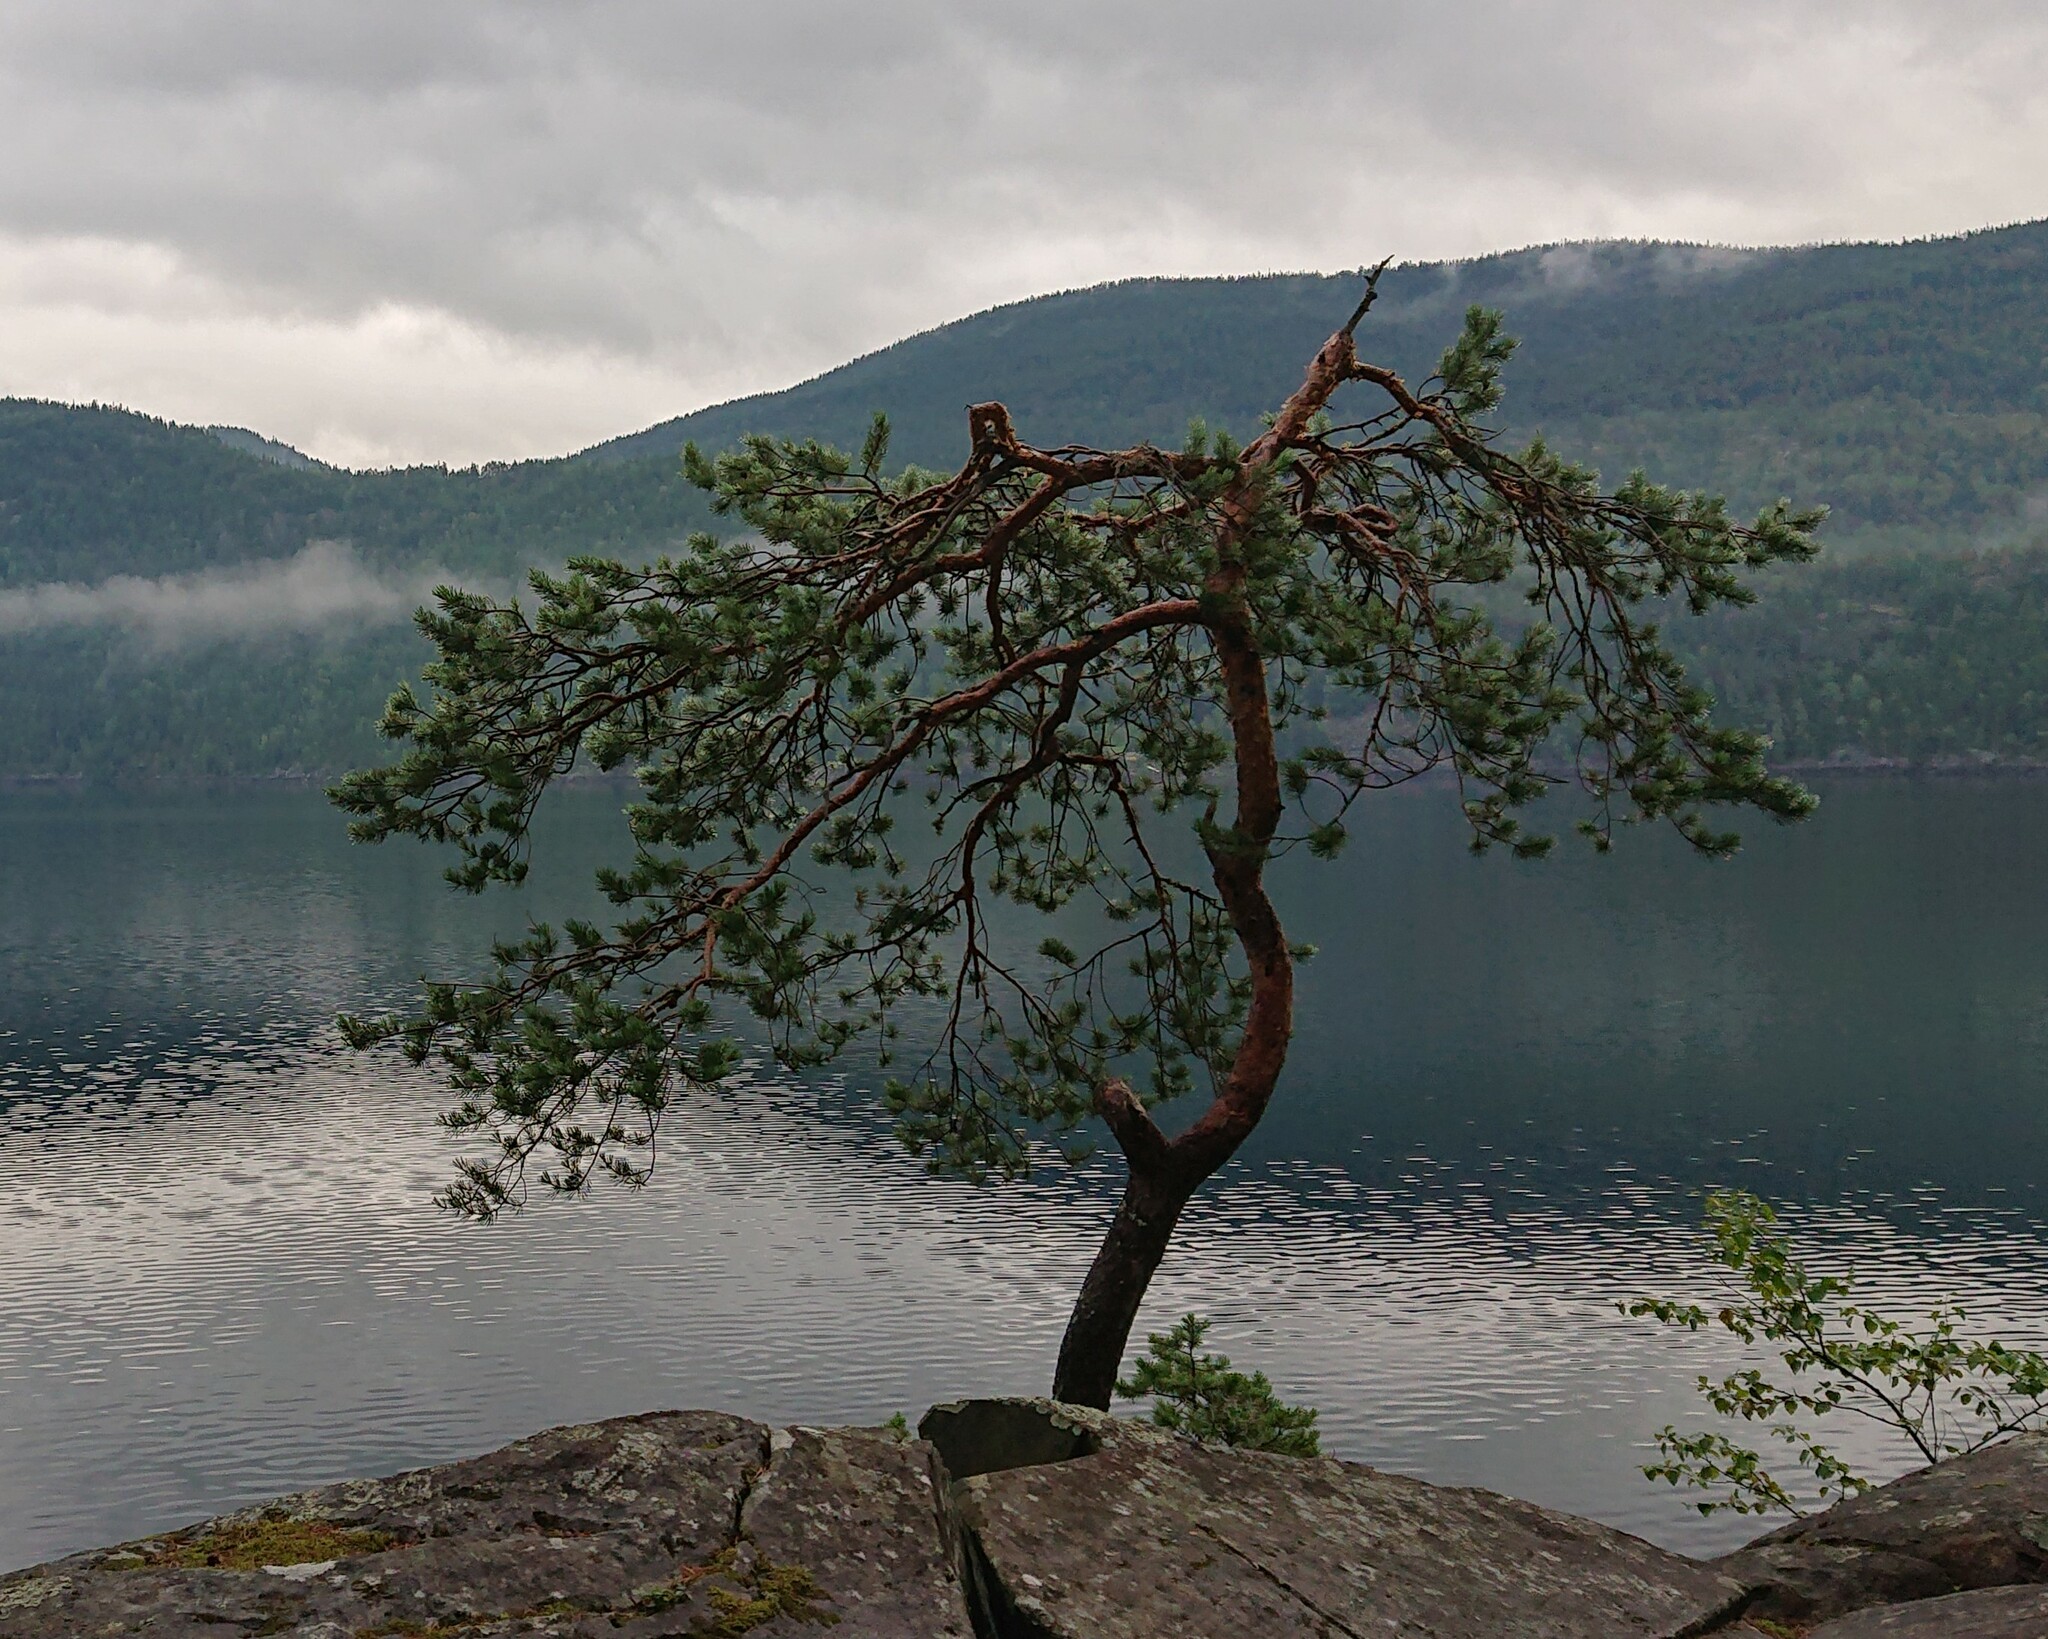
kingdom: Plantae
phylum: Tracheophyta
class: Pinopsida
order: Pinales
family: Pinaceae
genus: Pinus
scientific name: Pinus sylvestris
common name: Scots pine
